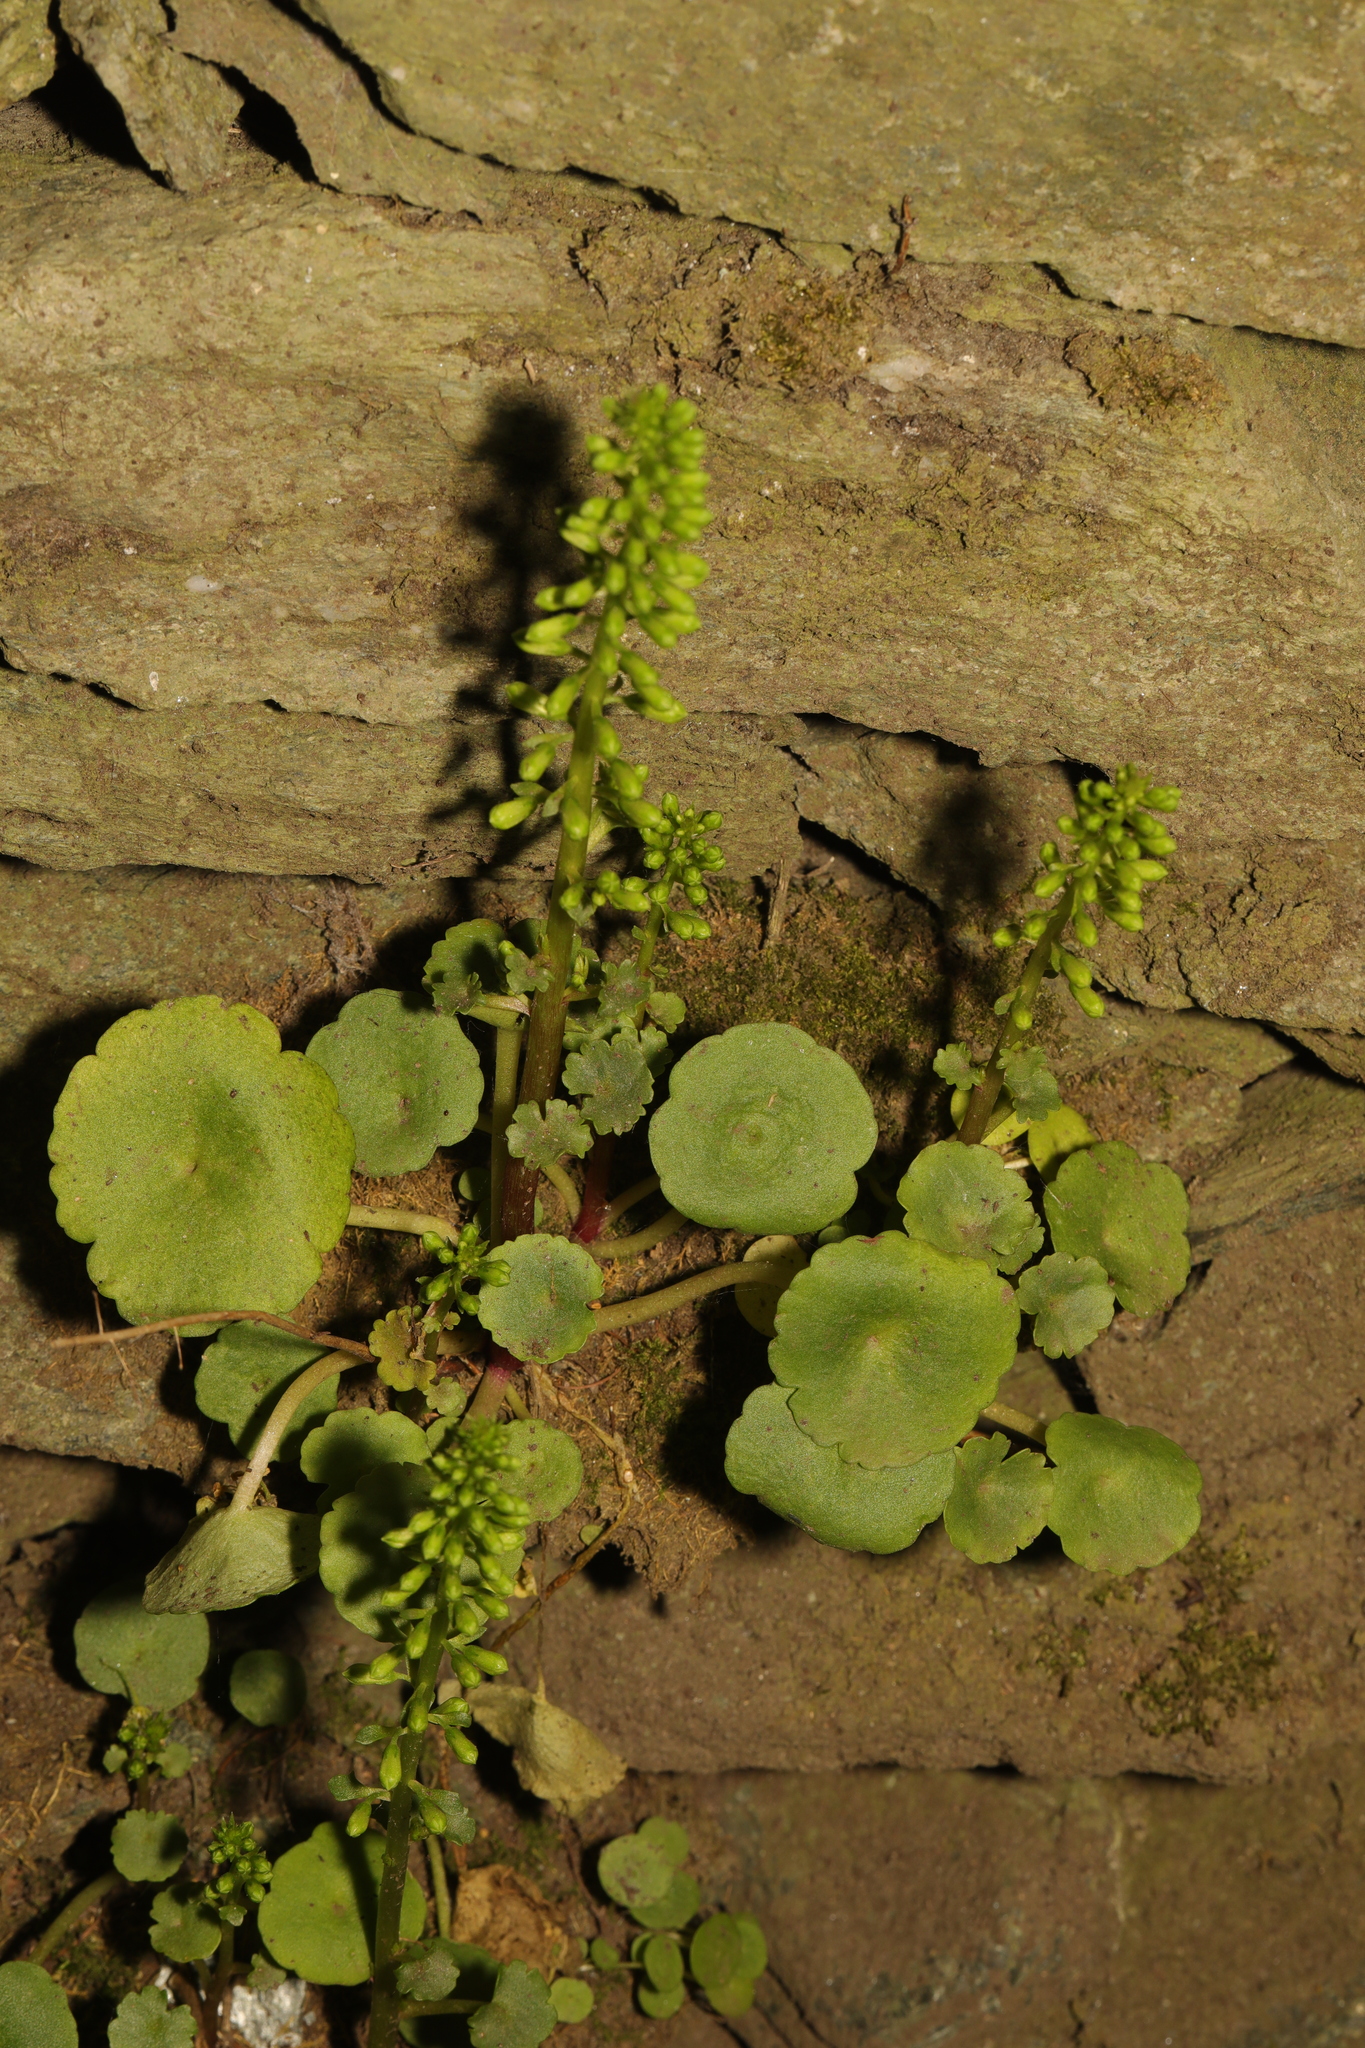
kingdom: Plantae
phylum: Tracheophyta
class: Magnoliopsida
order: Saxifragales
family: Crassulaceae
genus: Umbilicus
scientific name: Umbilicus rupestris
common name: Navelwort
